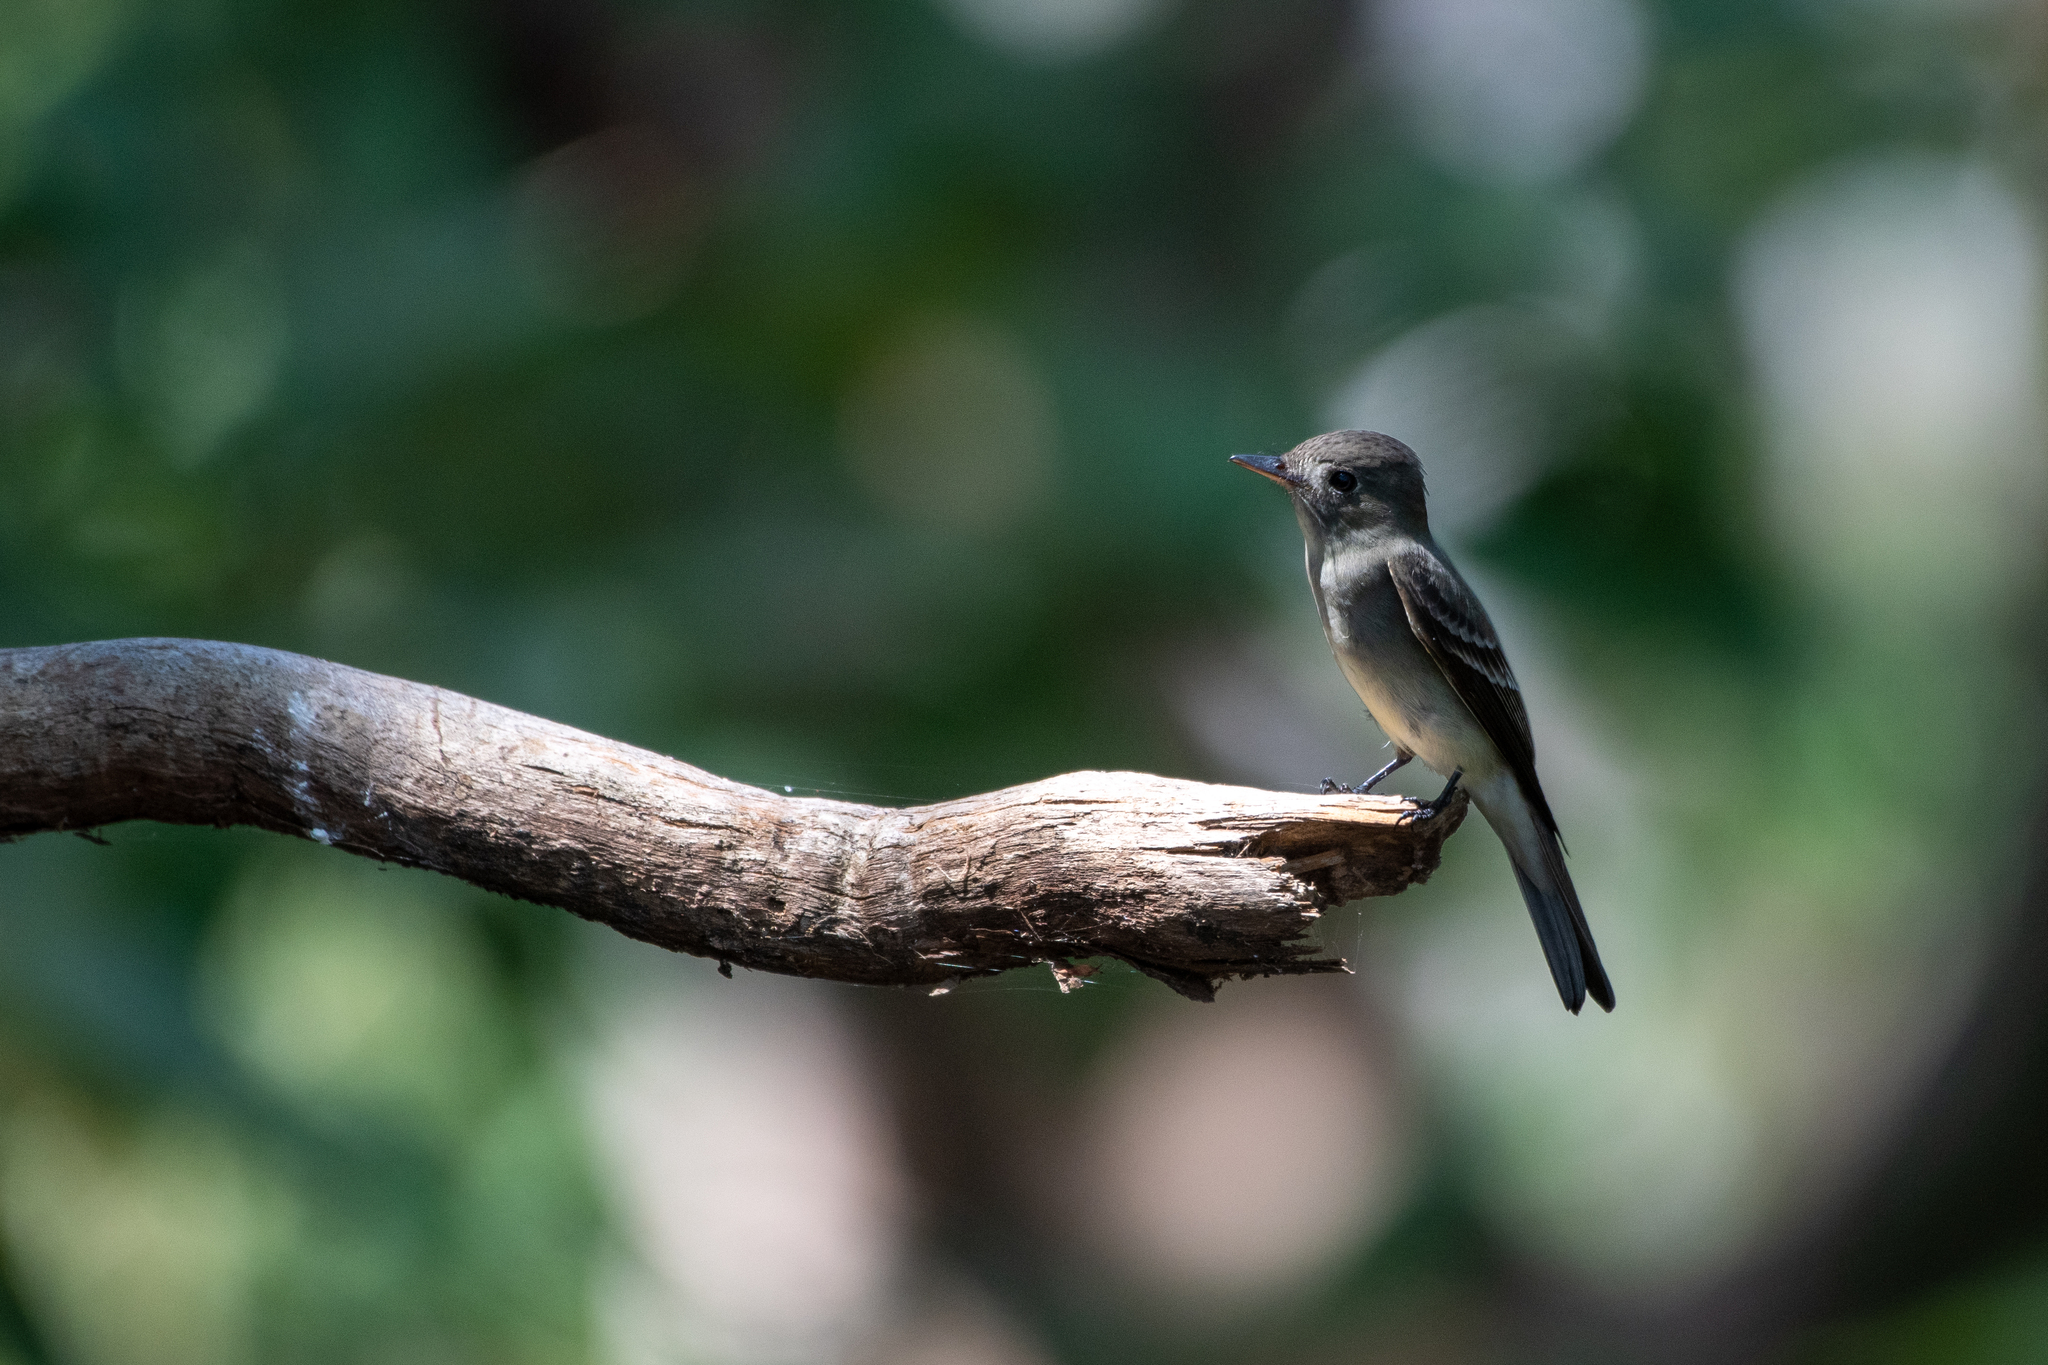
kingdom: Animalia
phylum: Chordata
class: Aves
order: Passeriformes
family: Tyrannidae
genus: Contopus
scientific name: Contopus virens
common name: Eastern wood-pewee
